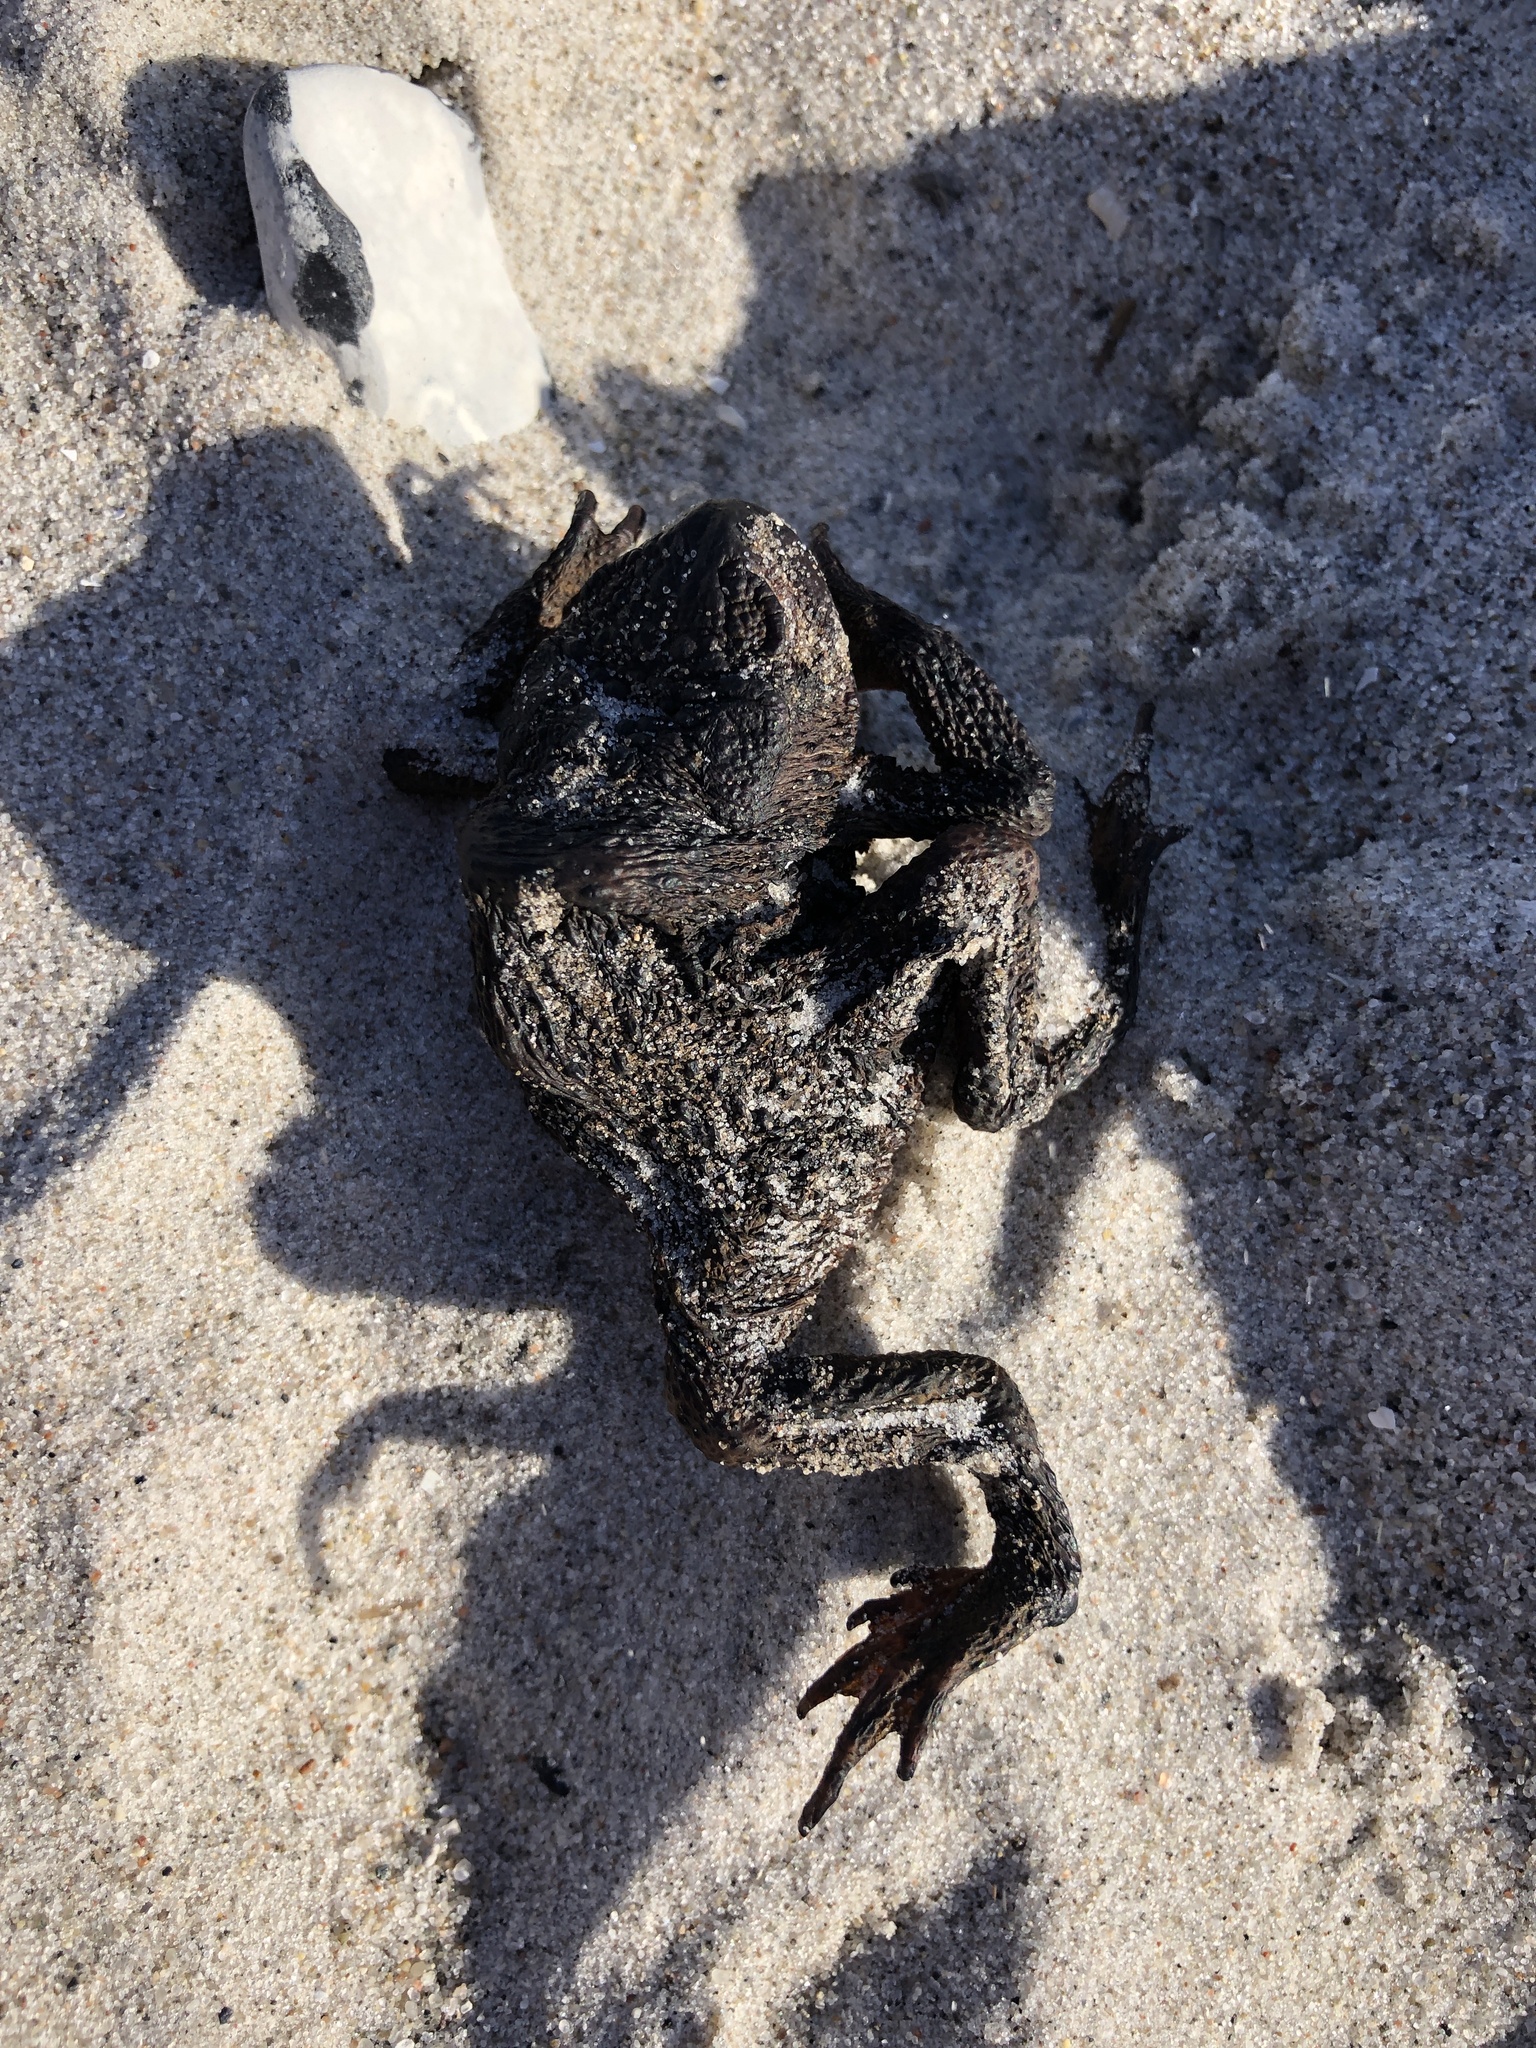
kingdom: Animalia
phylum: Chordata
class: Amphibia
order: Anura
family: Bufonidae
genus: Bufo
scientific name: Bufo bufo
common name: Common toad
